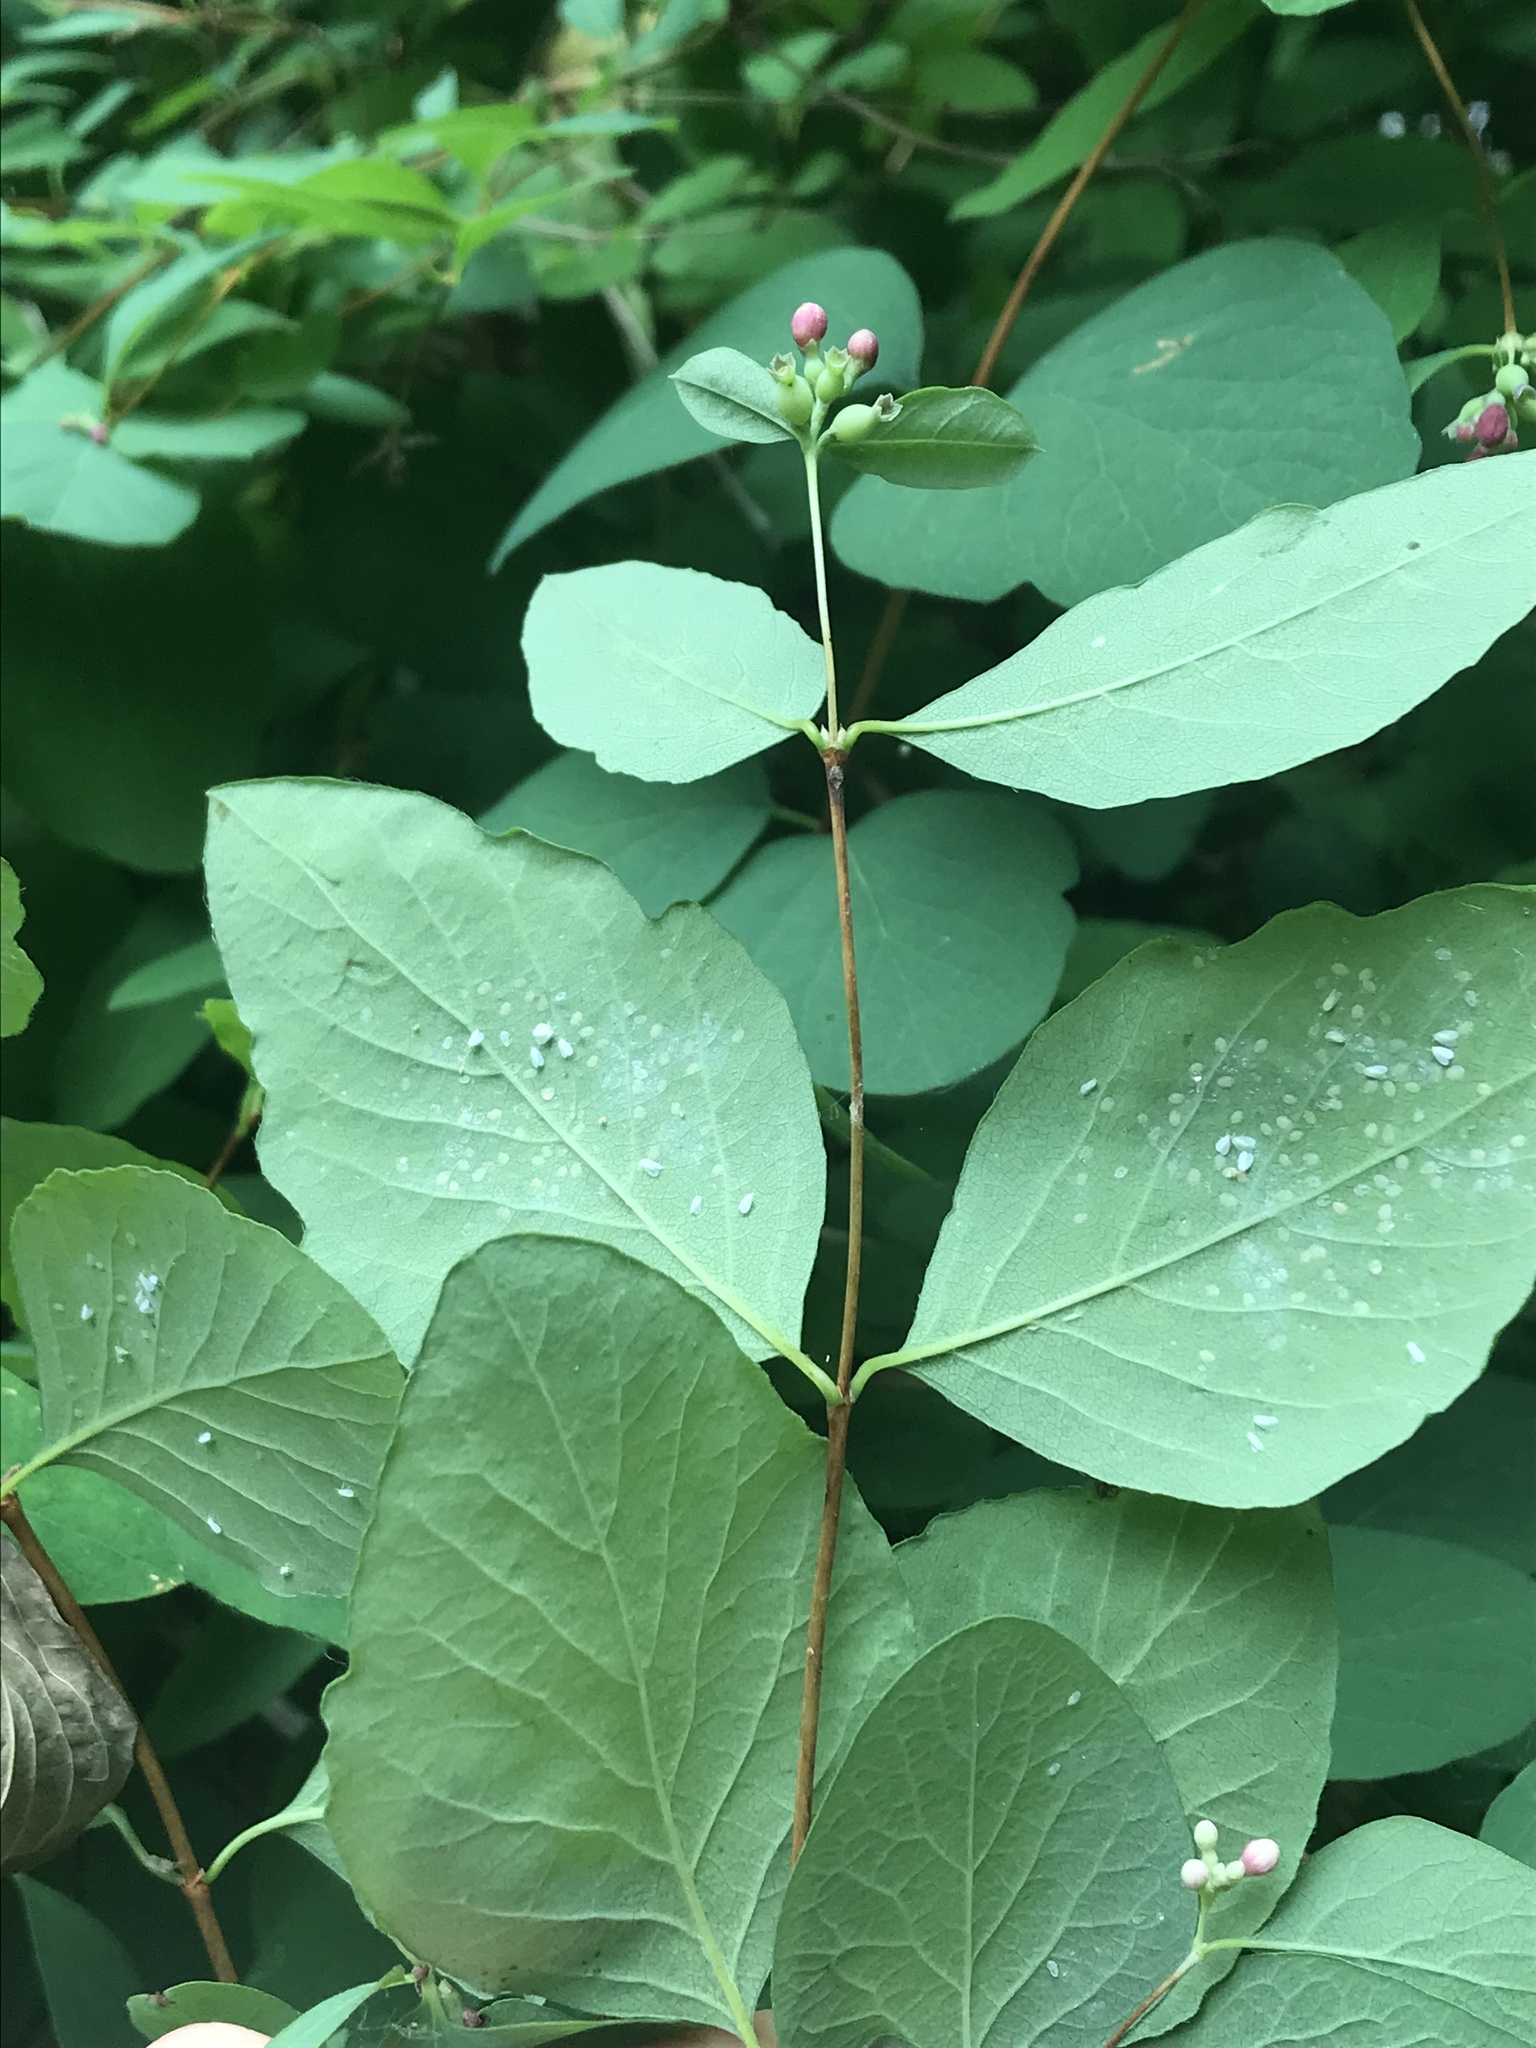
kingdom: Plantae
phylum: Tracheophyta
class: Magnoliopsida
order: Dipsacales
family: Caprifoliaceae
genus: Symphoricarpos
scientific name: Symphoricarpos albus
